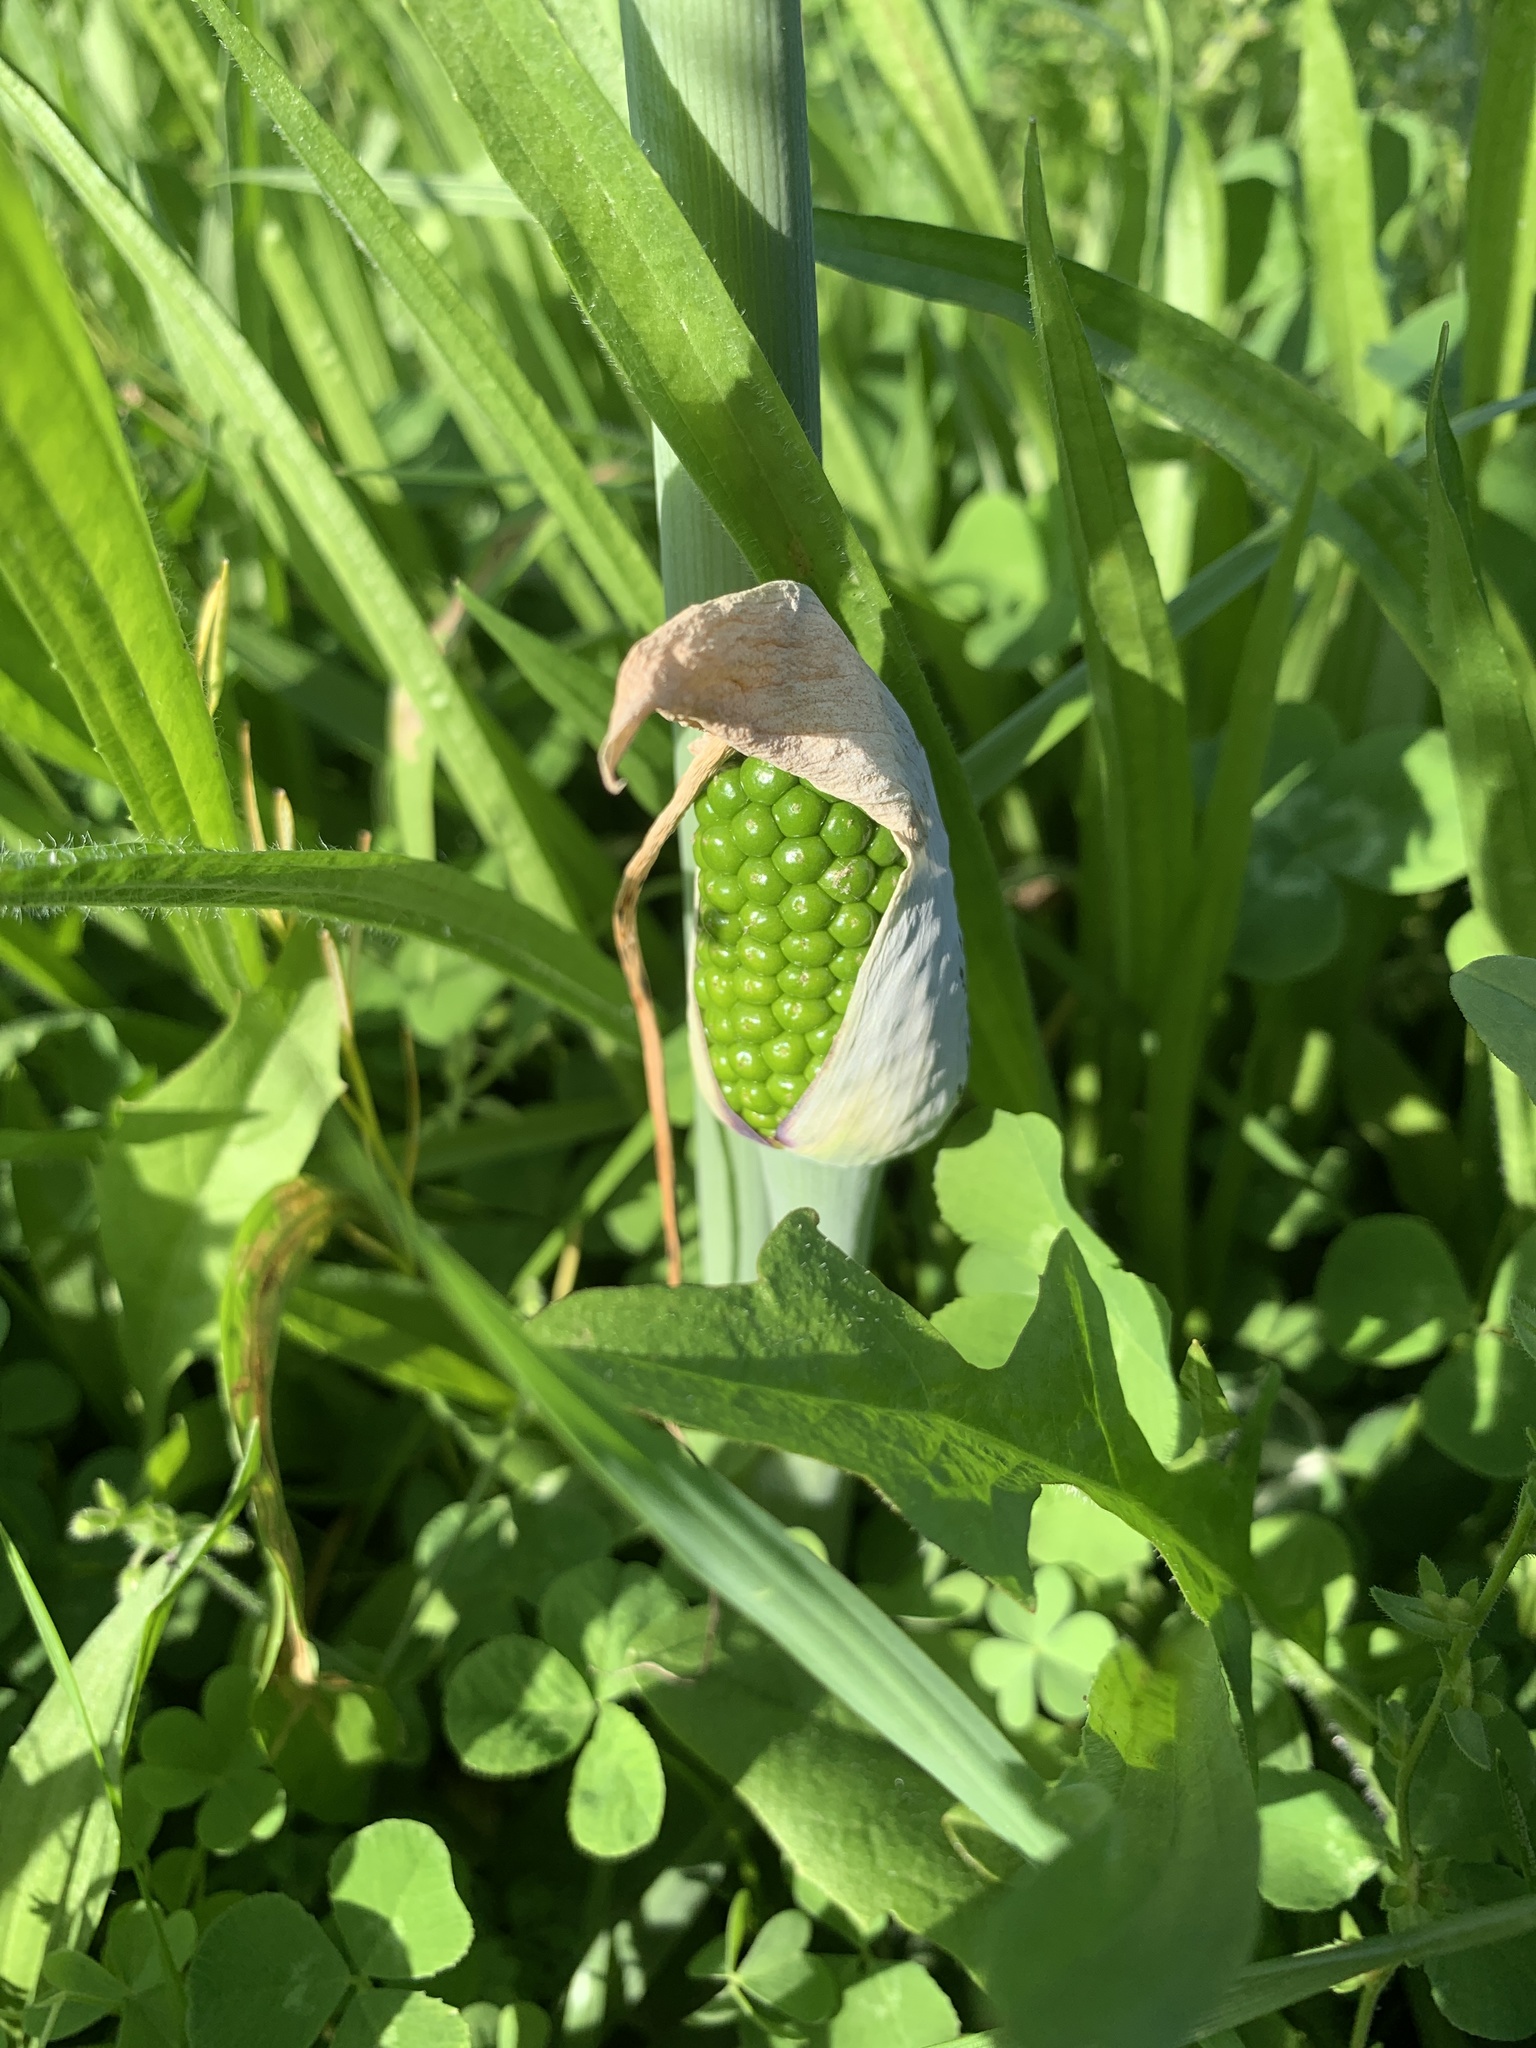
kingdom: Plantae
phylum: Tracheophyta
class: Liliopsida
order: Alismatales
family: Araceae
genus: Arisaema
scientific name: Arisaema dracontium
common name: Dragon-arum
